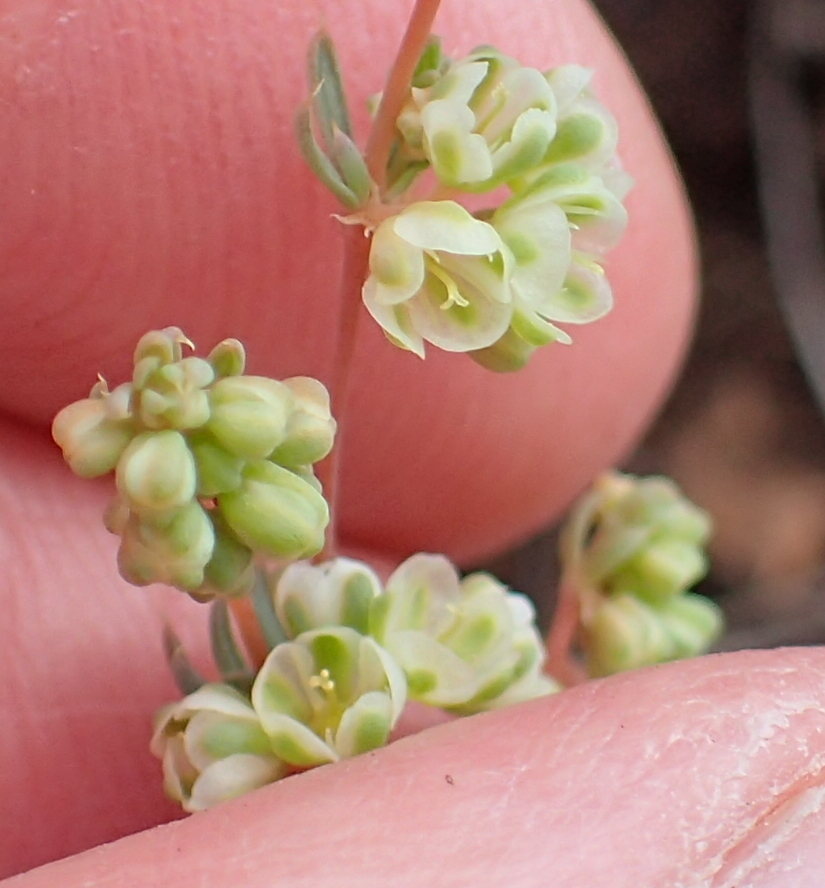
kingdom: Plantae
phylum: Tracheophyta
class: Magnoliopsida
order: Caryophyllales
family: Molluginaceae
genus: Psammotropha
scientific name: Psammotropha mucronata
